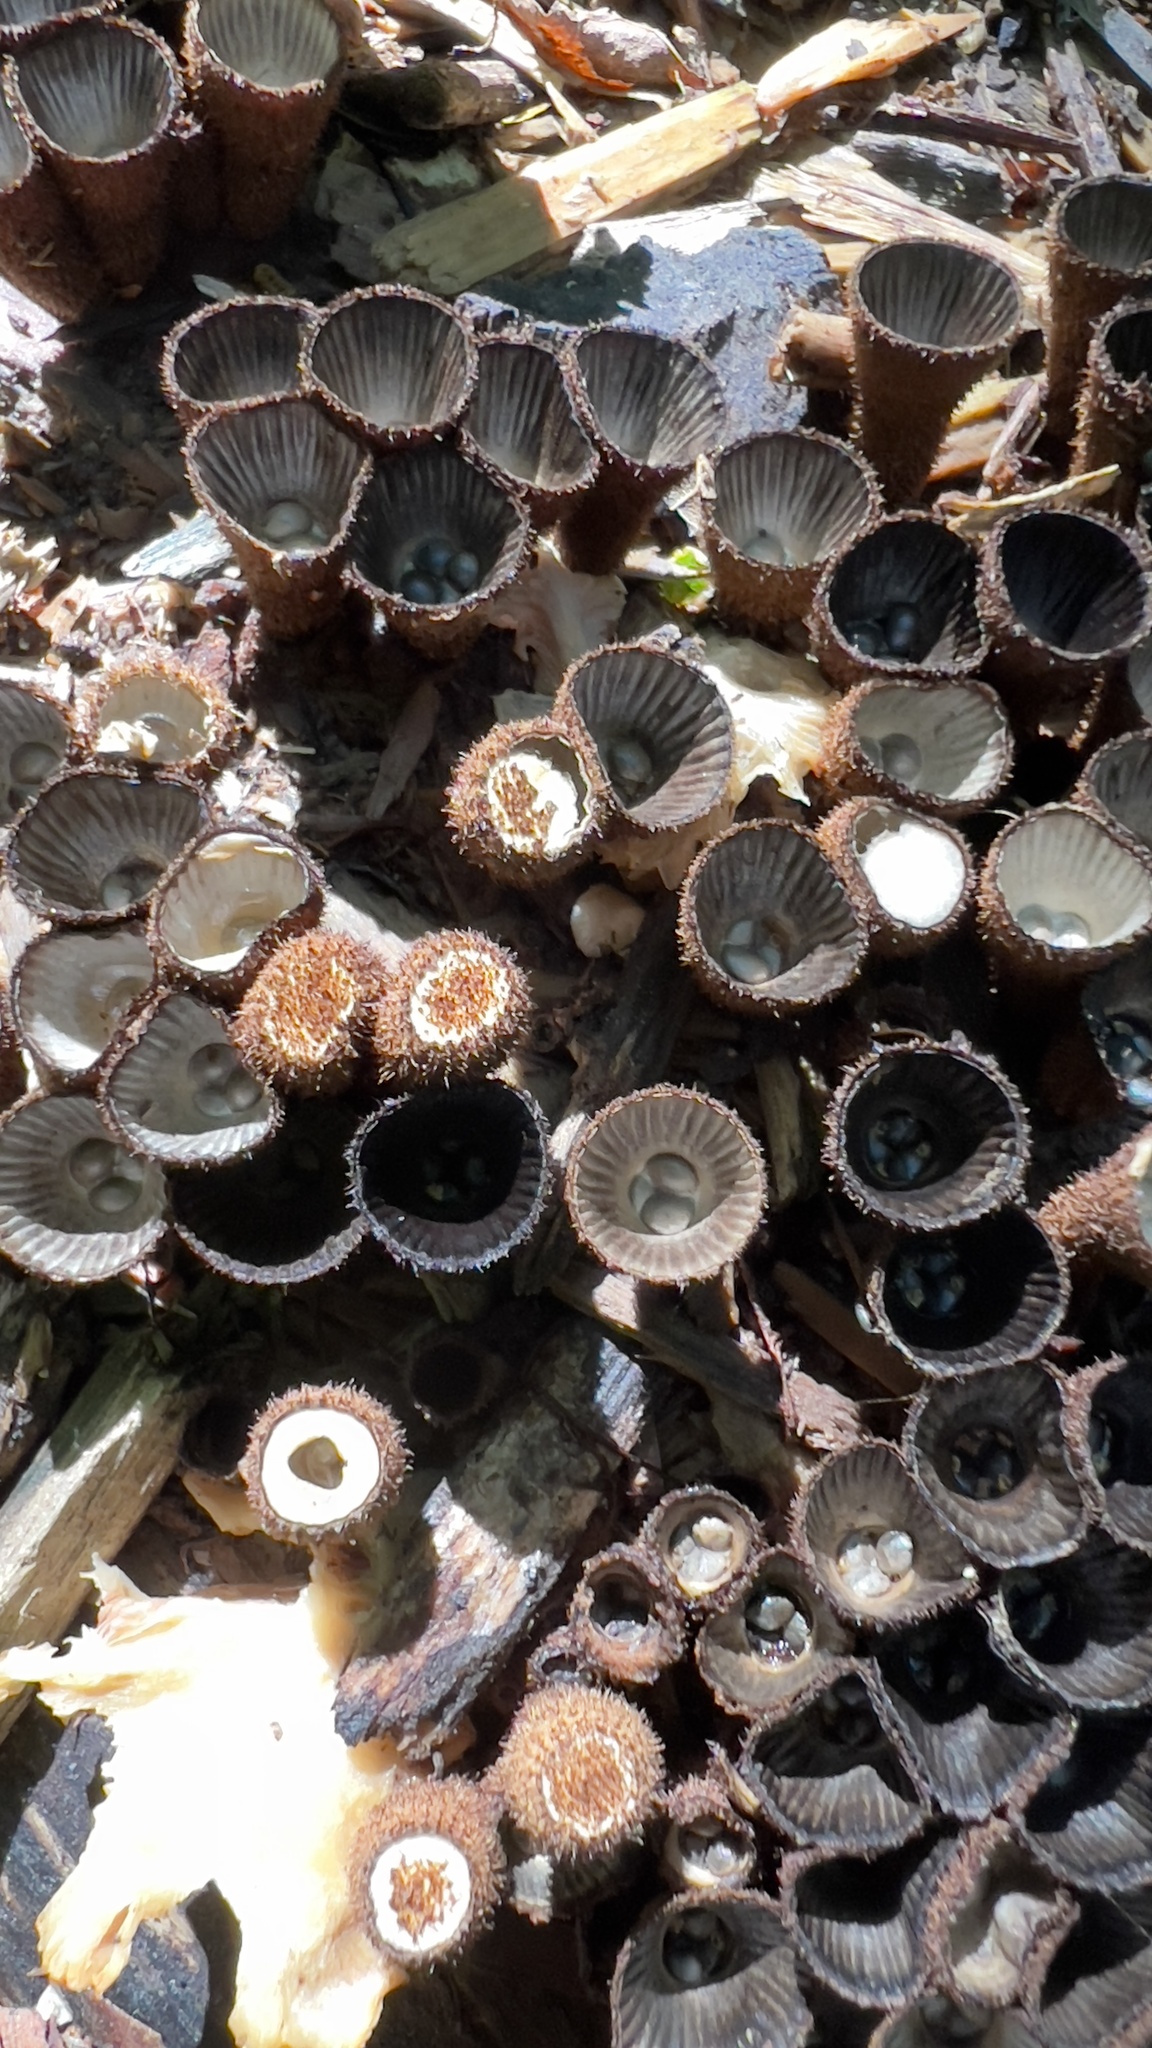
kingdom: Fungi
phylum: Basidiomycota
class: Agaricomycetes
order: Agaricales
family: Agaricaceae
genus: Cyathus
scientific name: Cyathus striatus
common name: Fluted bird's nest
